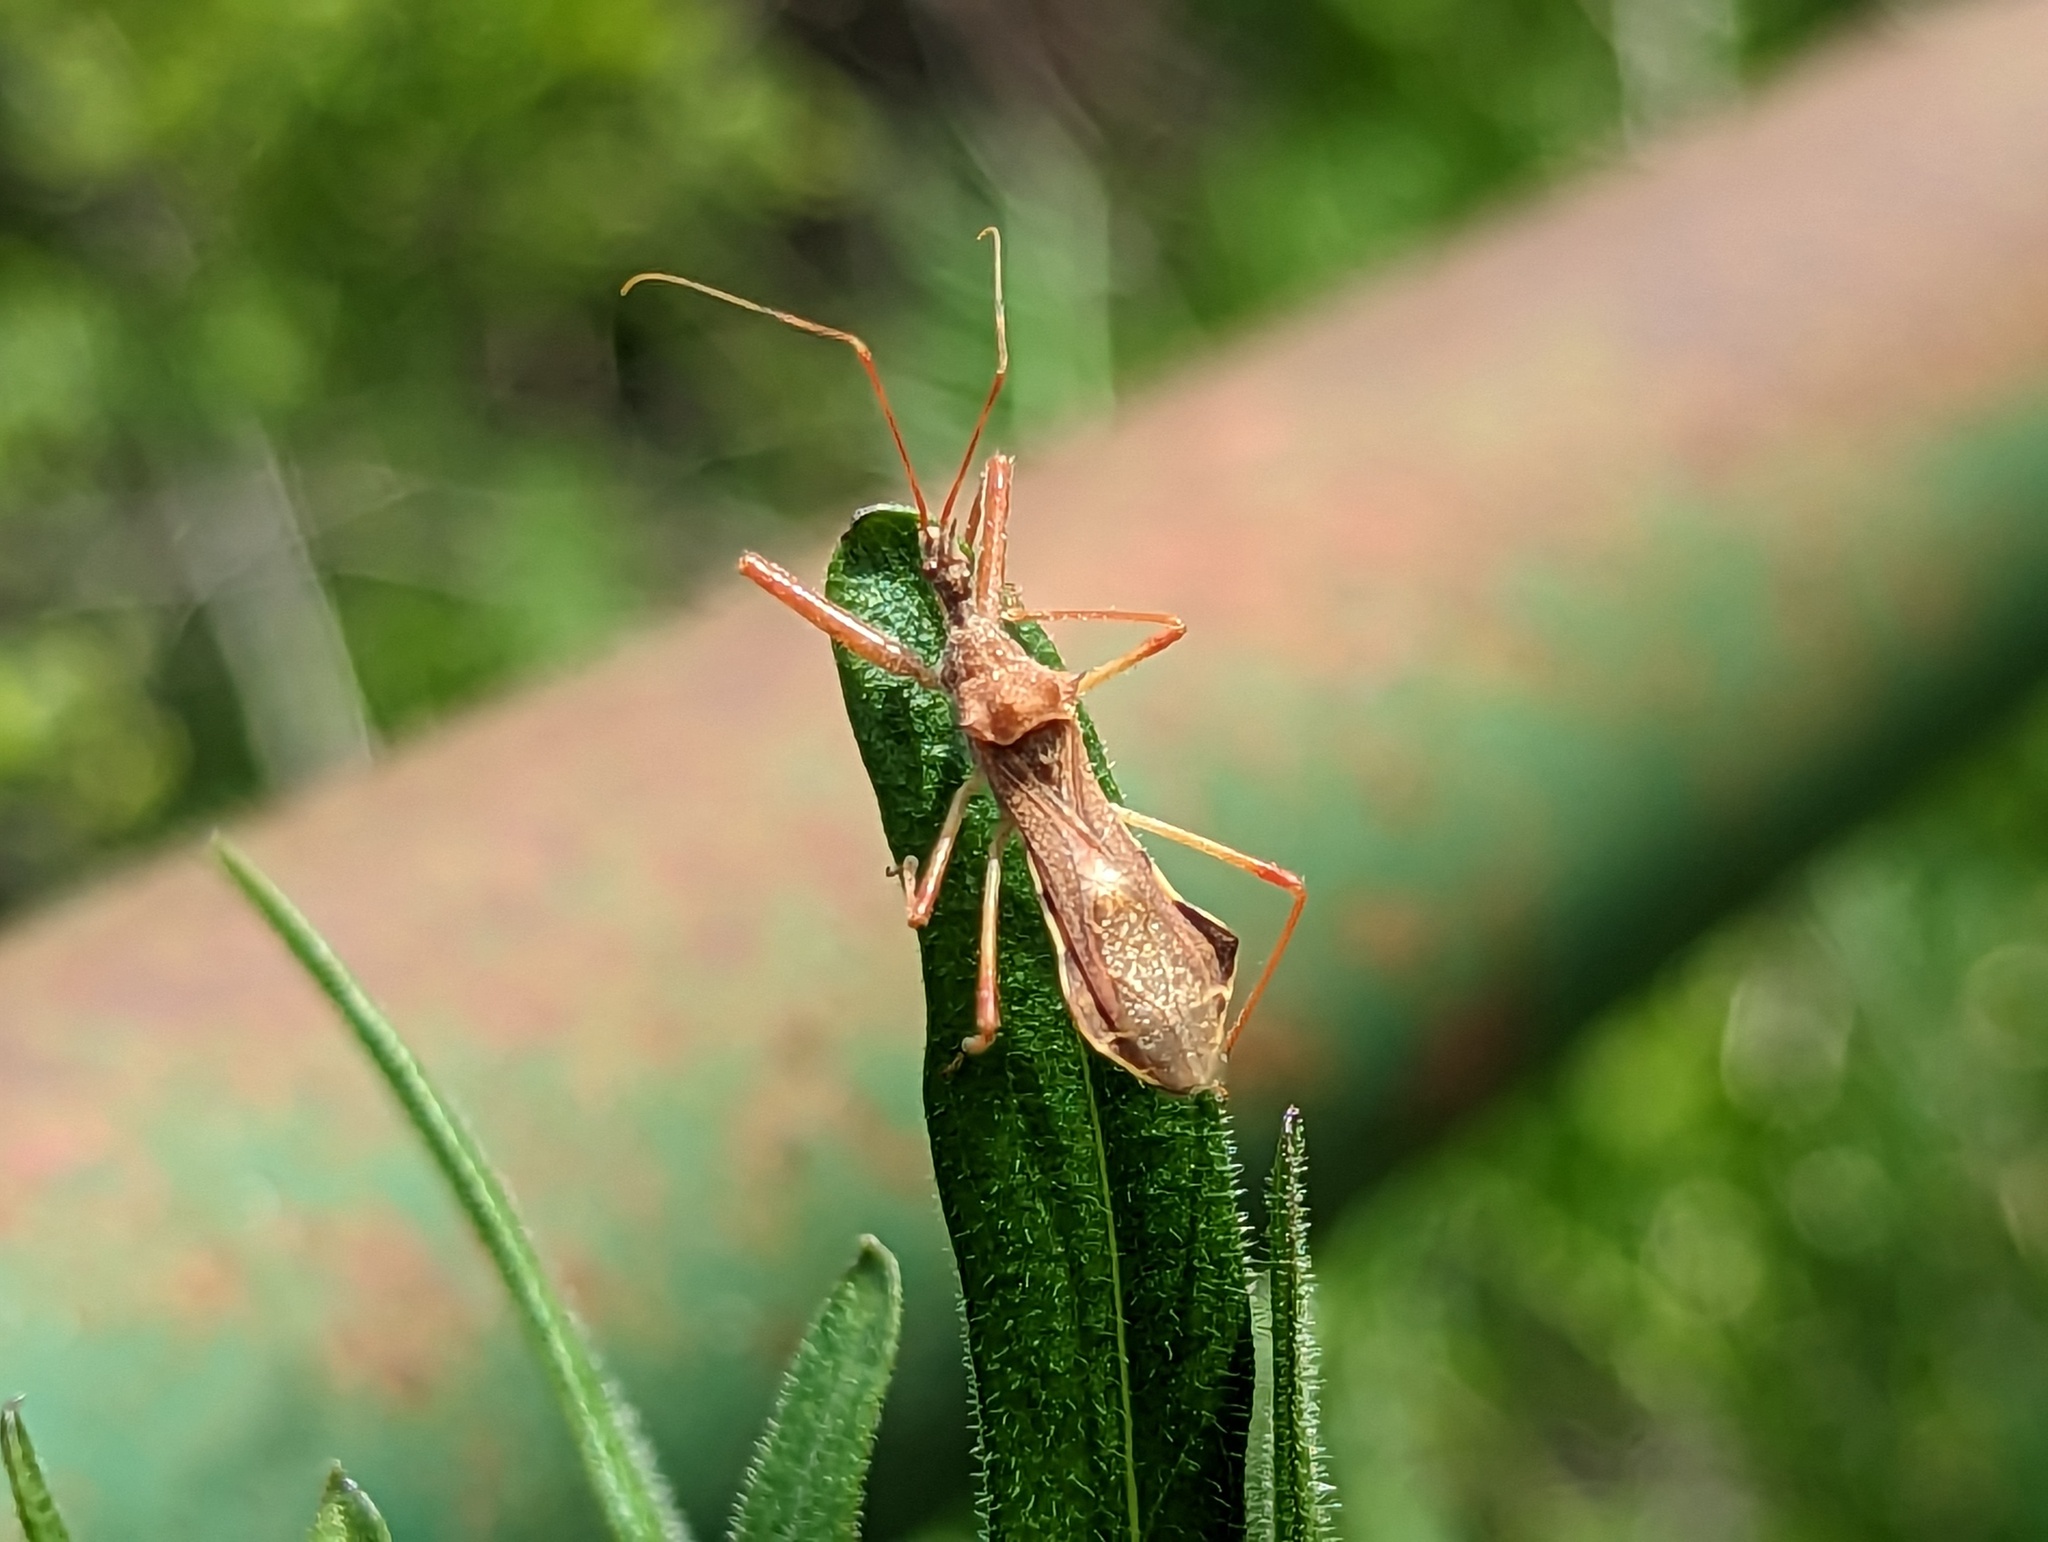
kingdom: Animalia
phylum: Arthropoda
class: Insecta
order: Hemiptera
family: Reduviidae
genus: Nagusta
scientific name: Nagusta goedelii
